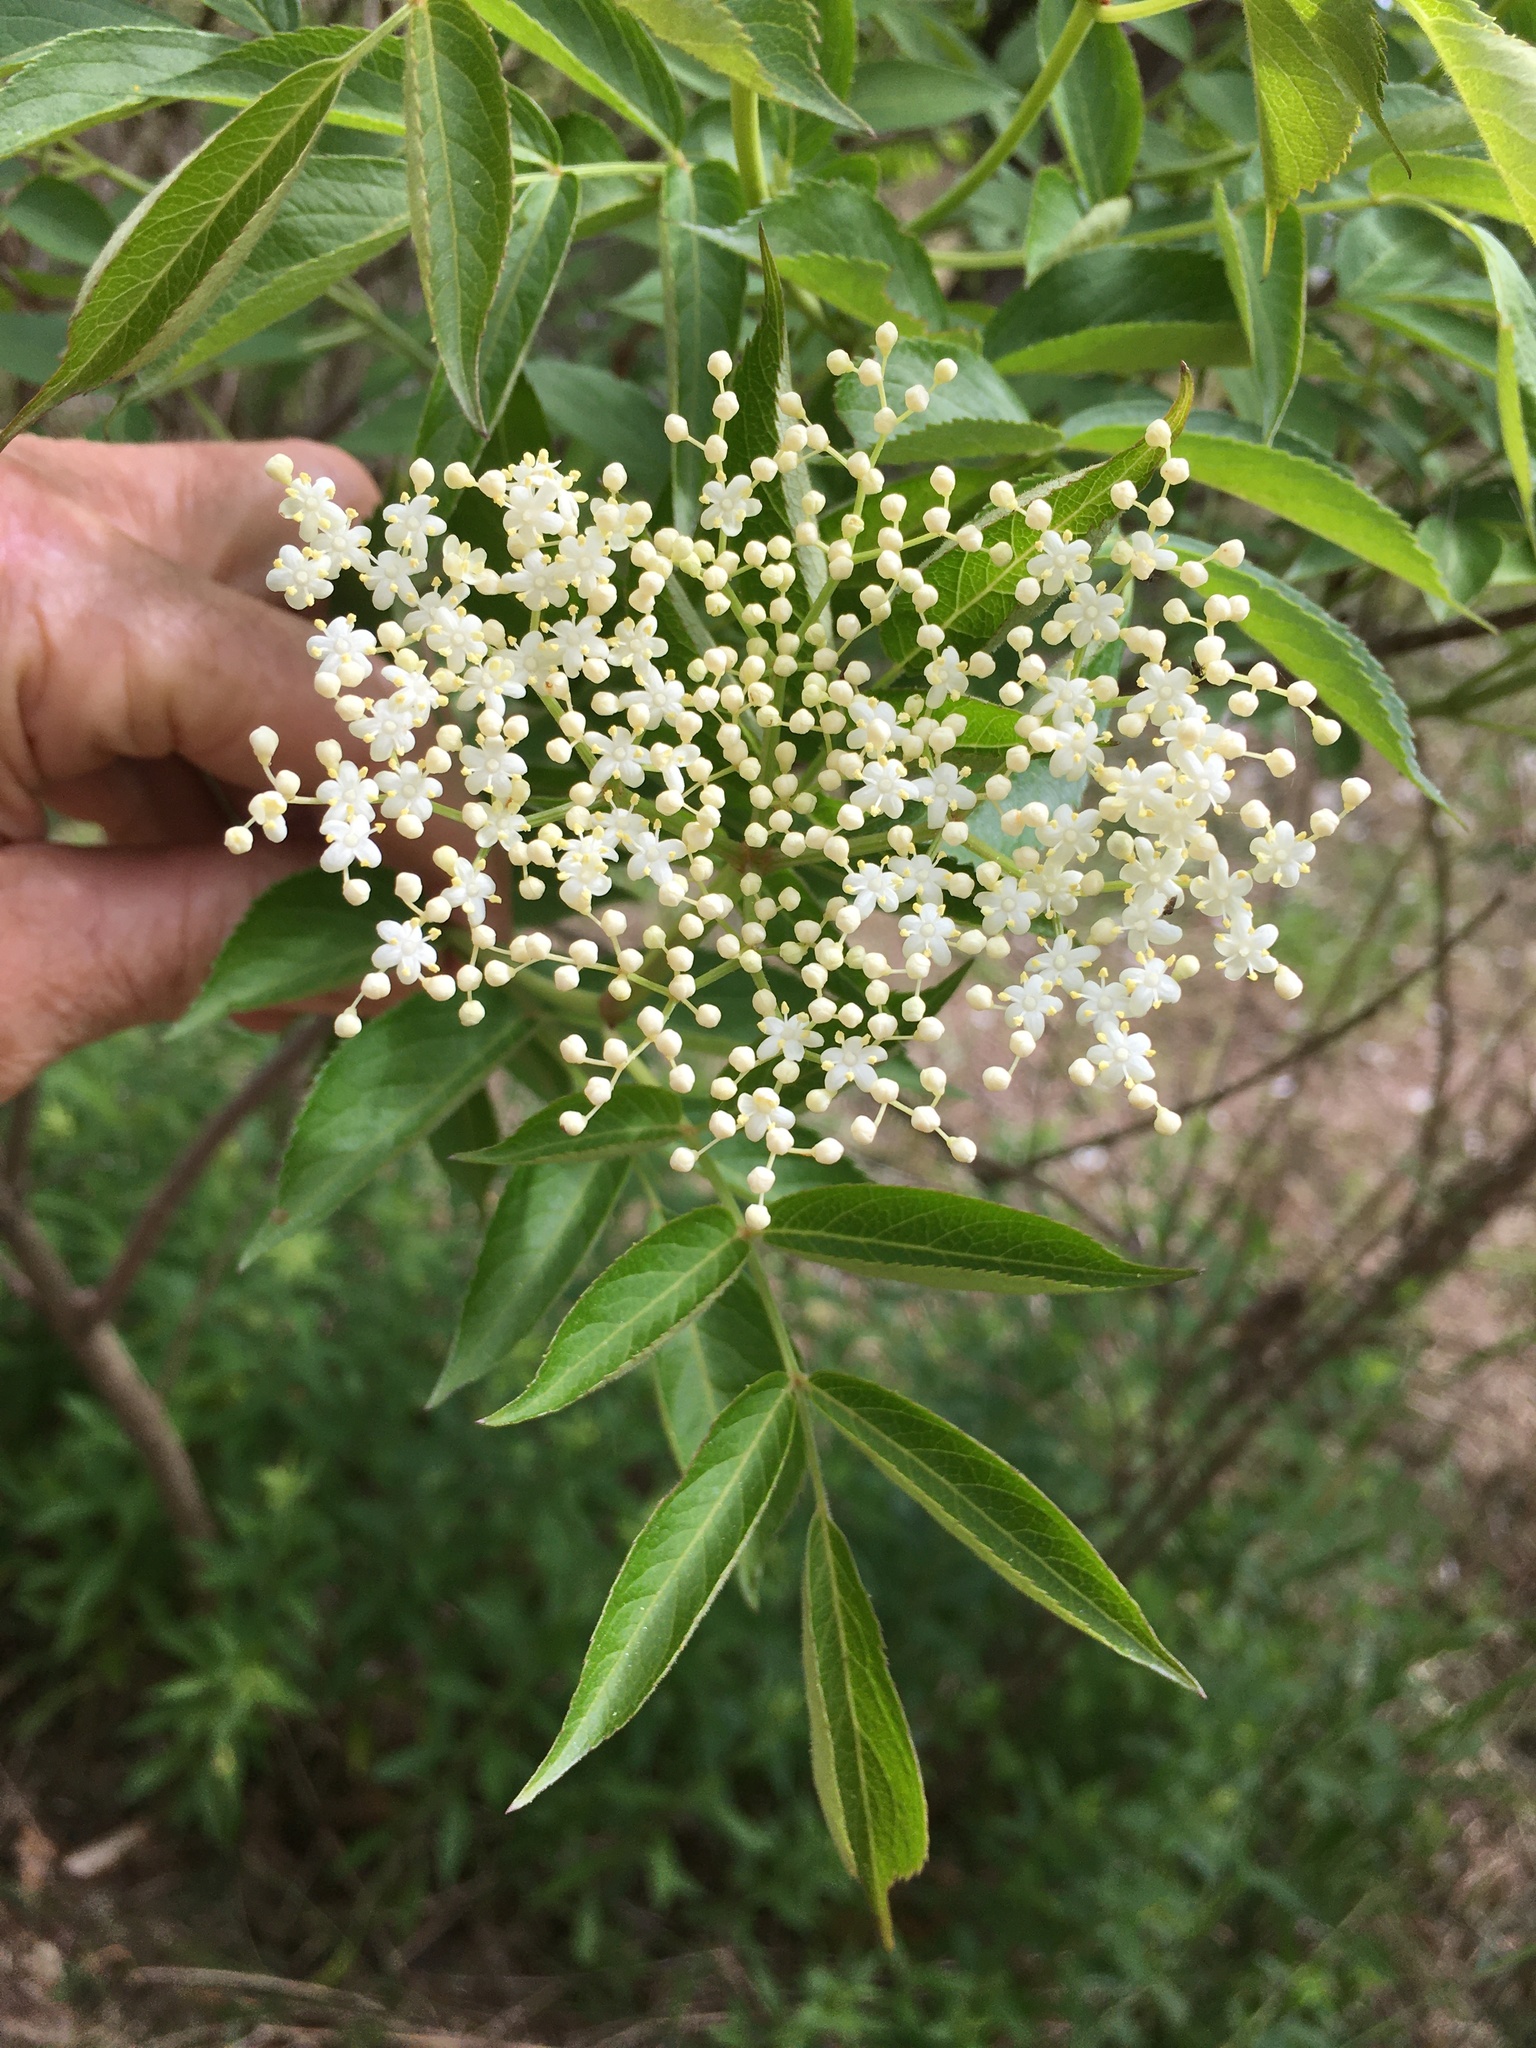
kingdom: Plantae
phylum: Tracheophyta
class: Magnoliopsida
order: Dipsacales
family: Viburnaceae
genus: Sambucus
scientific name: Sambucus canadensis
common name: American elder
